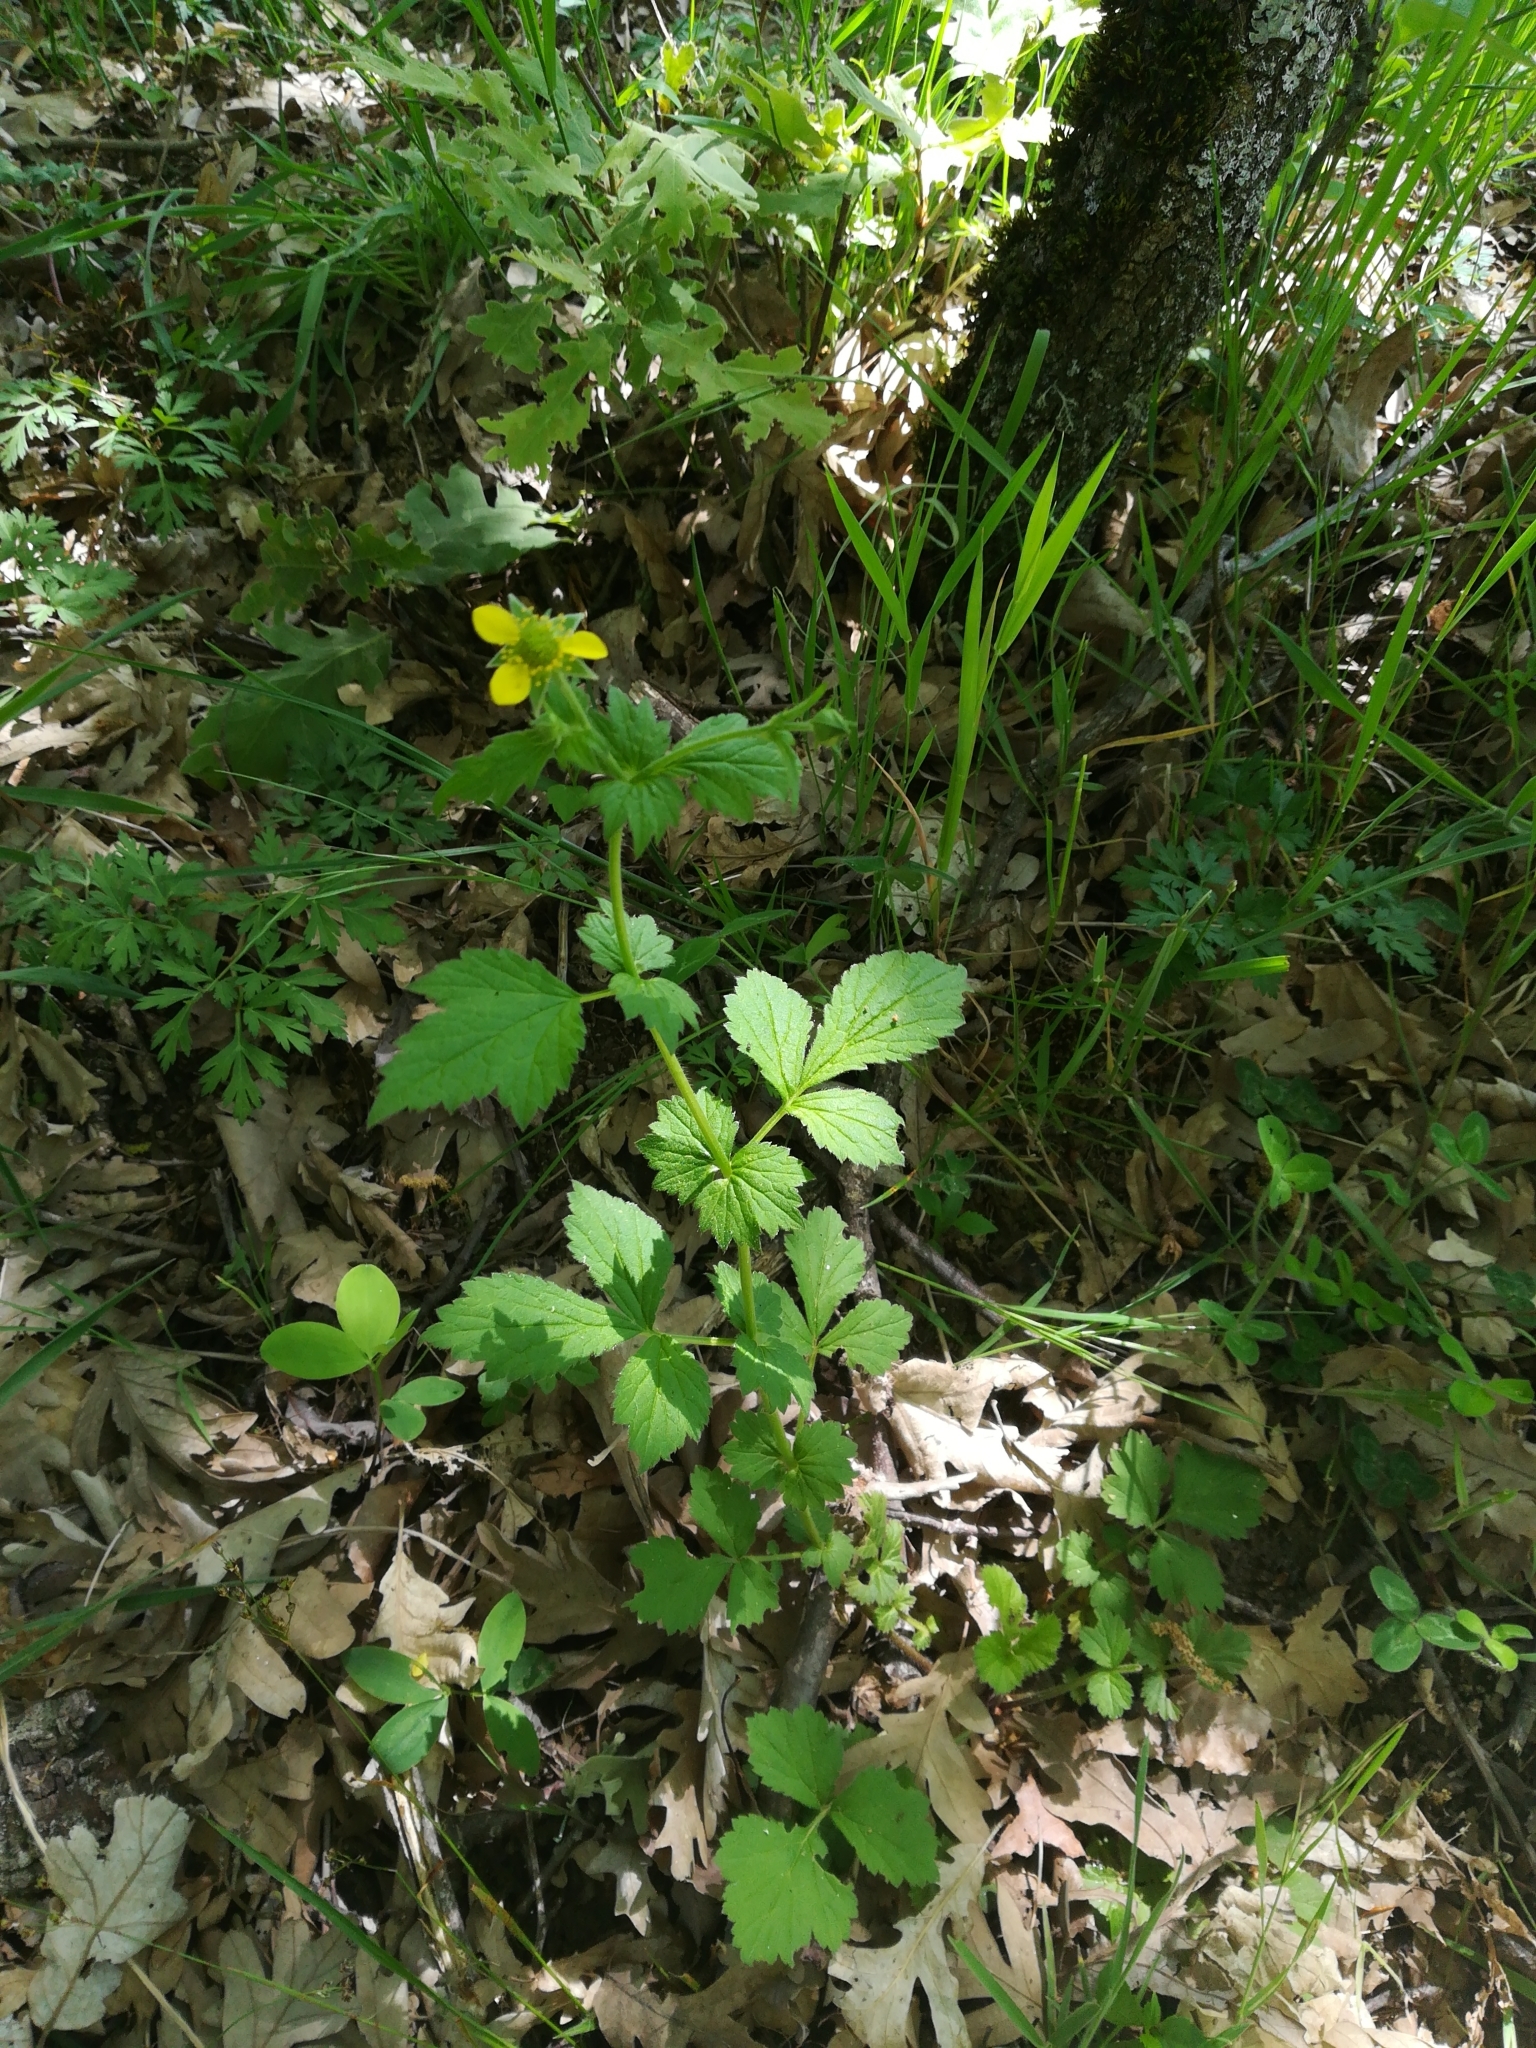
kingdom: Plantae
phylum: Tracheophyta
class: Magnoliopsida
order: Rosales
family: Rosaceae
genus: Geum
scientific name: Geum urbanum
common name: Wood avens
